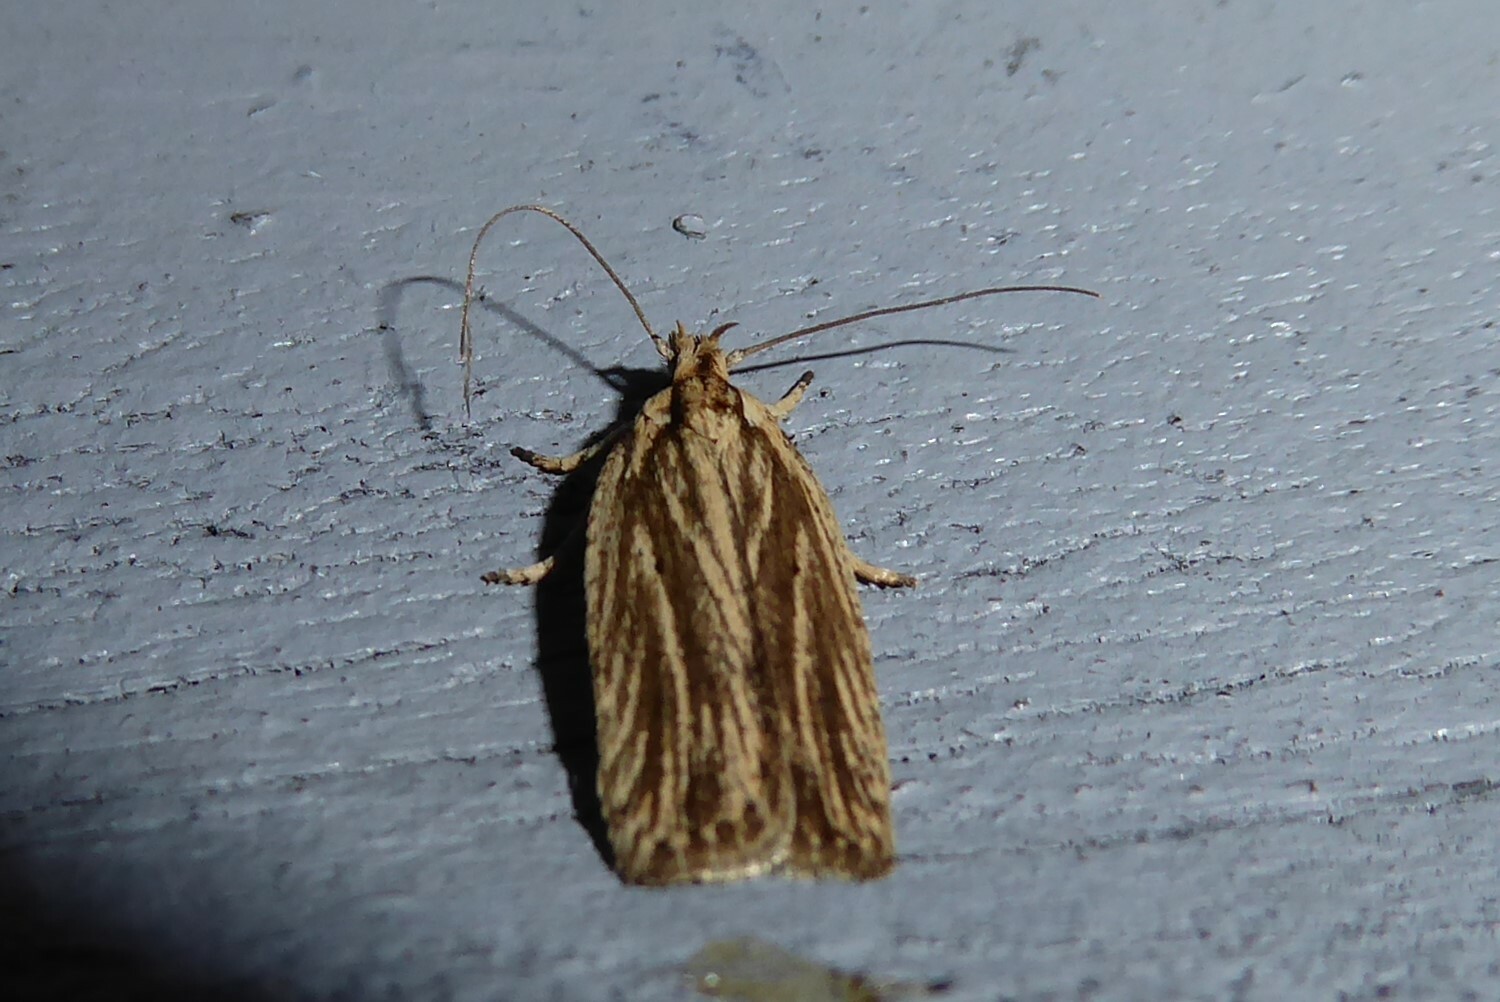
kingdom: Animalia
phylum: Arthropoda
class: Insecta
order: Lepidoptera
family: Depressariidae
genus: Agonopterix
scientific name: Agonopterix
